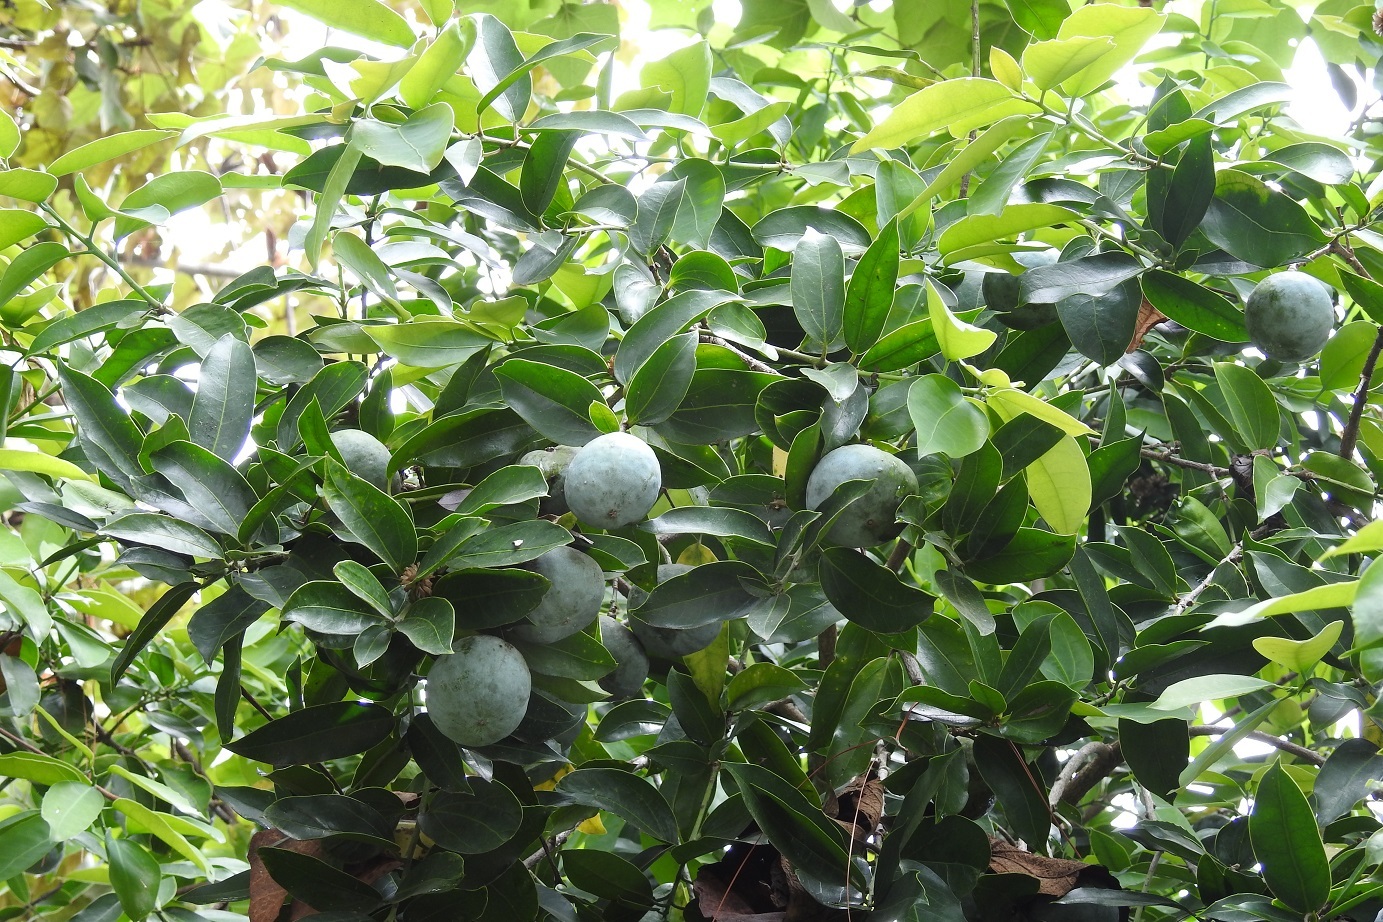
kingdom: Plantae
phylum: Tracheophyta
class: Magnoliopsida
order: Malpighiales
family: Salicaceae
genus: Olmediella
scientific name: Olmediella betschleriana
